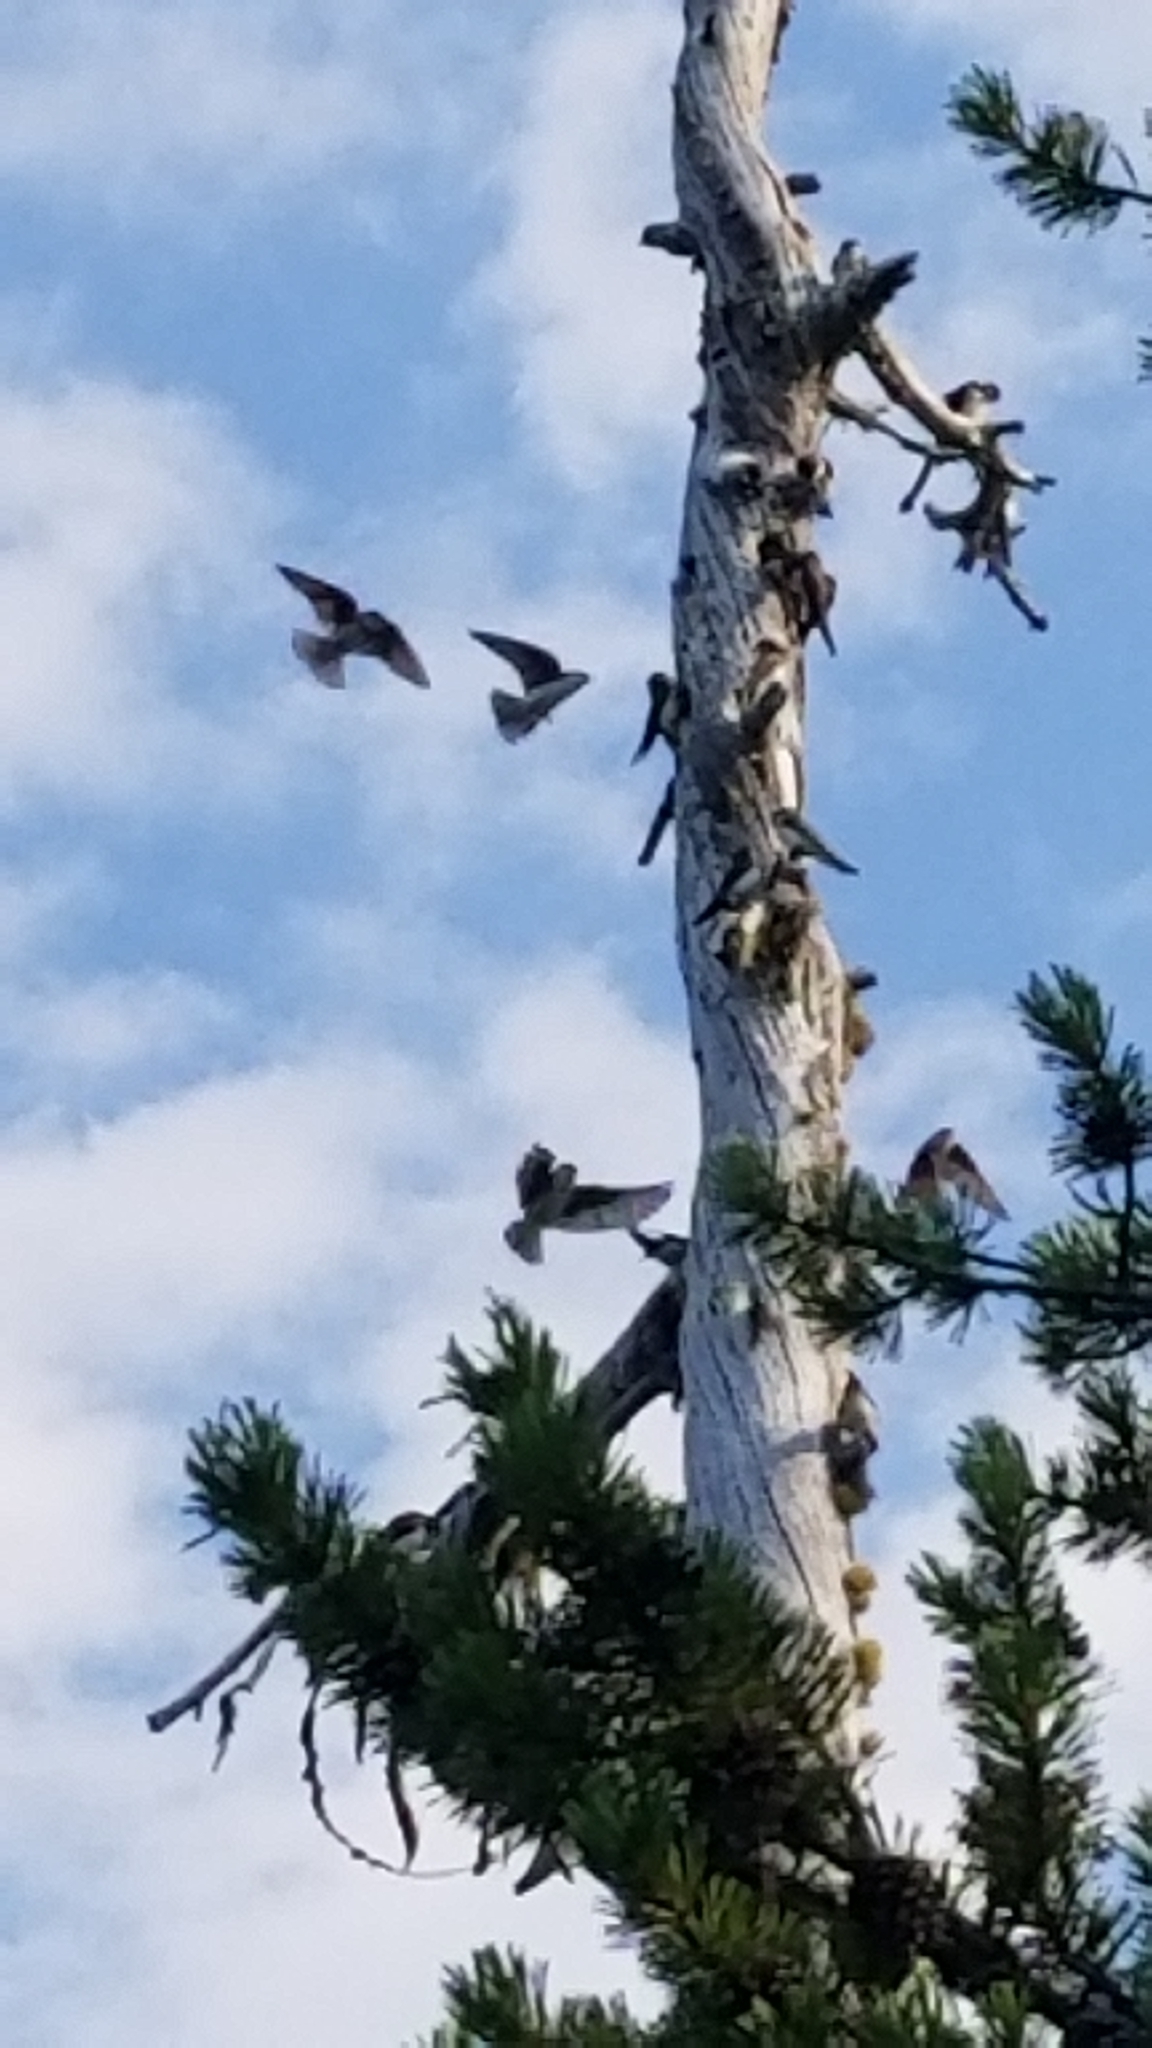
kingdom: Animalia
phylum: Chordata
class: Aves
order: Passeriformes
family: Hirundinidae
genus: Tachycineta
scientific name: Tachycineta bicolor
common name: Tree swallow
